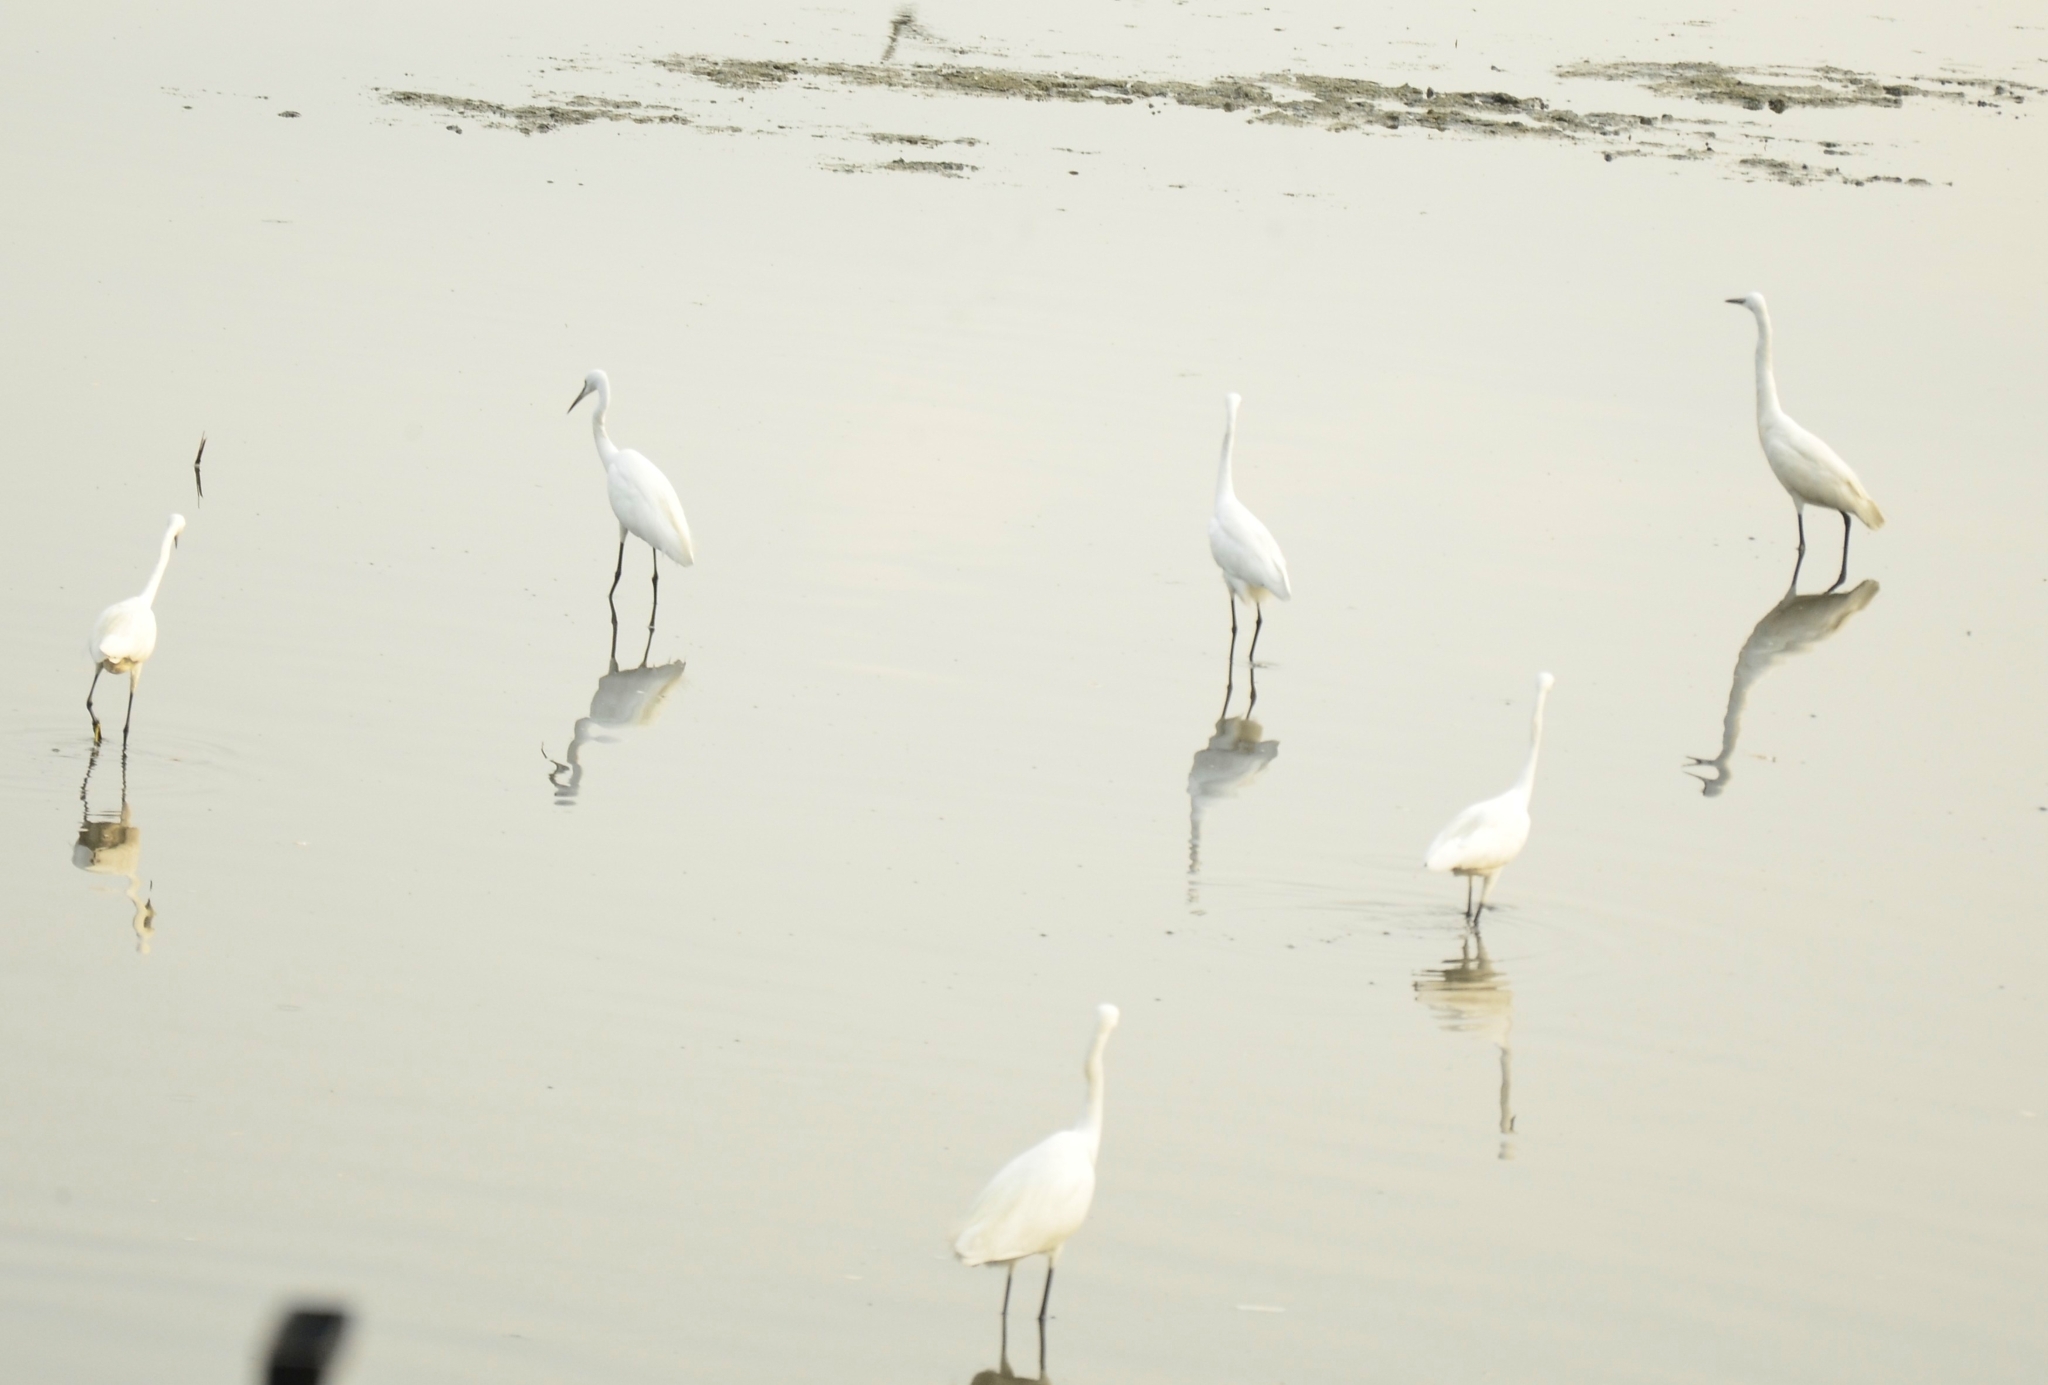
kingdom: Animalia
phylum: Chordata
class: Aves
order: Pelecaniformes
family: Ardeidae
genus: Egretta
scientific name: Egretta garzetta
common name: Little egret
